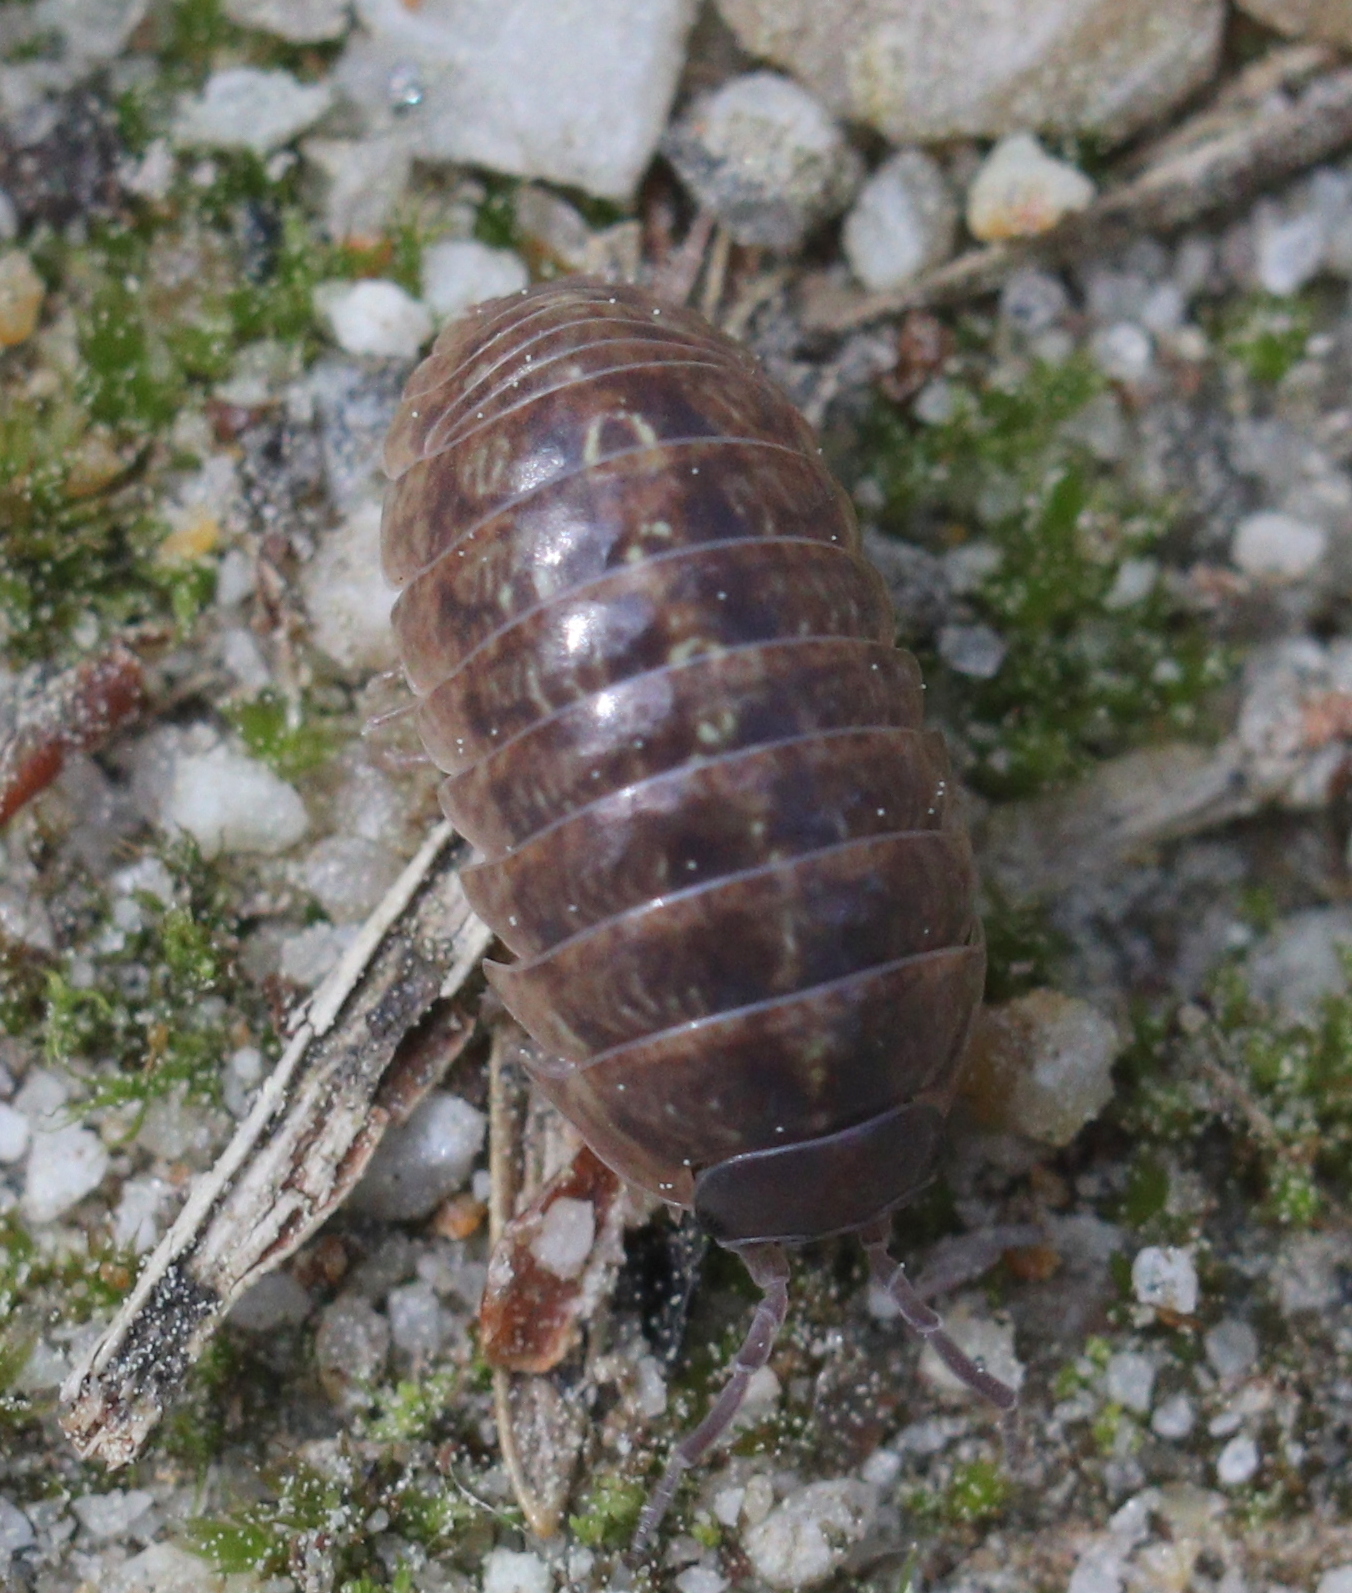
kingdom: Animalia
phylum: Arthropoda
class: Malacostraca
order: Isopoda
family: Armadillidiidae
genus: Armadillidium
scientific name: Armadillidium vulgare
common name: Common pill woodlouse
